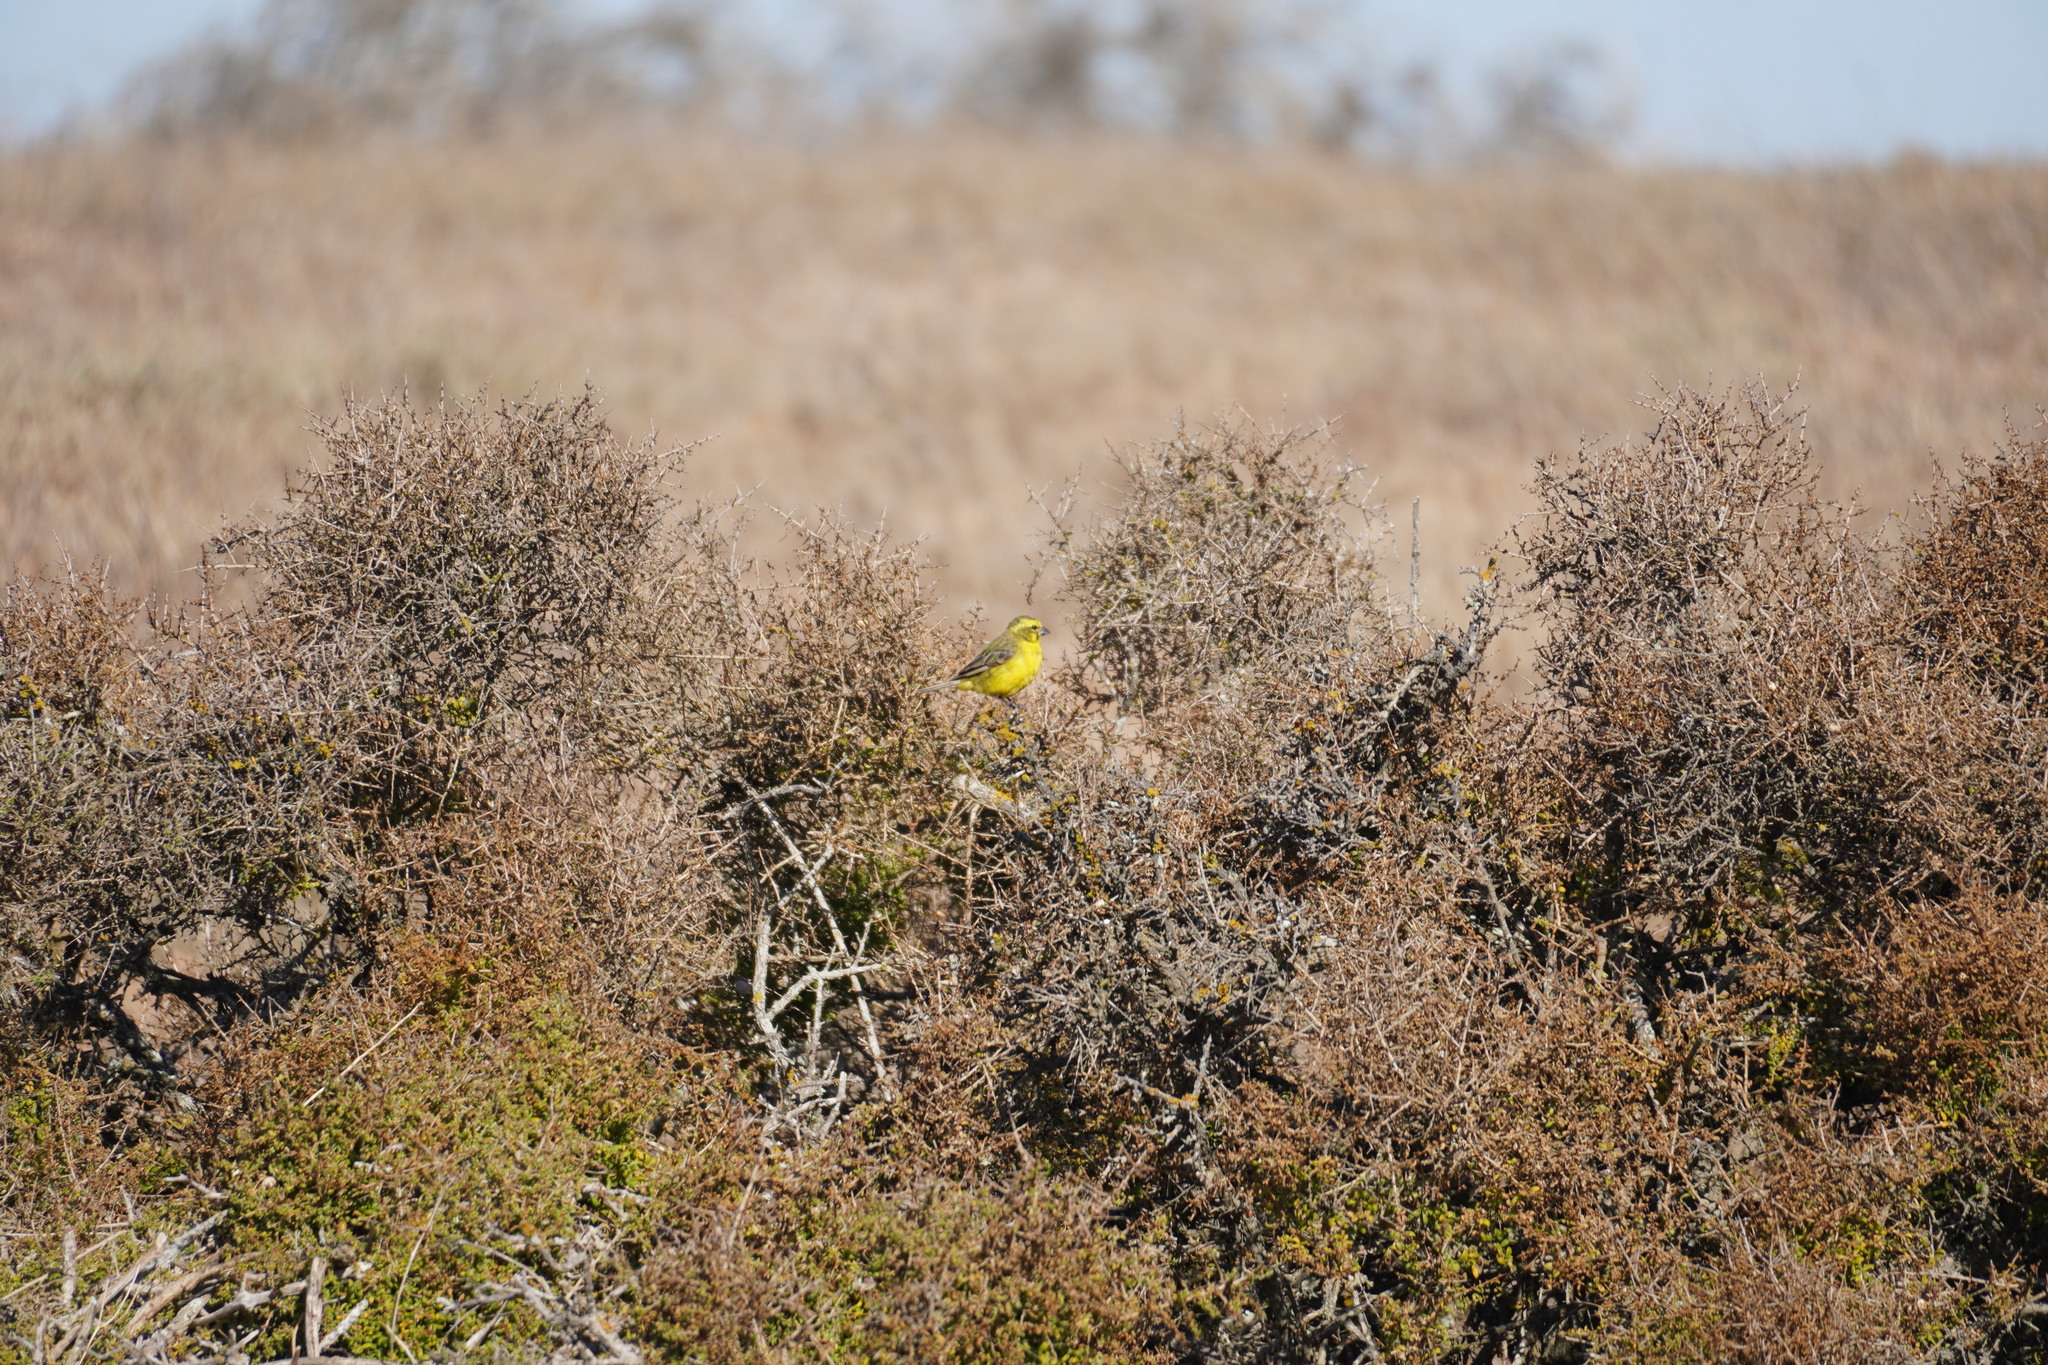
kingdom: Animalia
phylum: Chordata
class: Aves
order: Passeriformes
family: Fringillidae
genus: Crithagra
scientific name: Crithagra flaviventris
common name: Yellow canary
